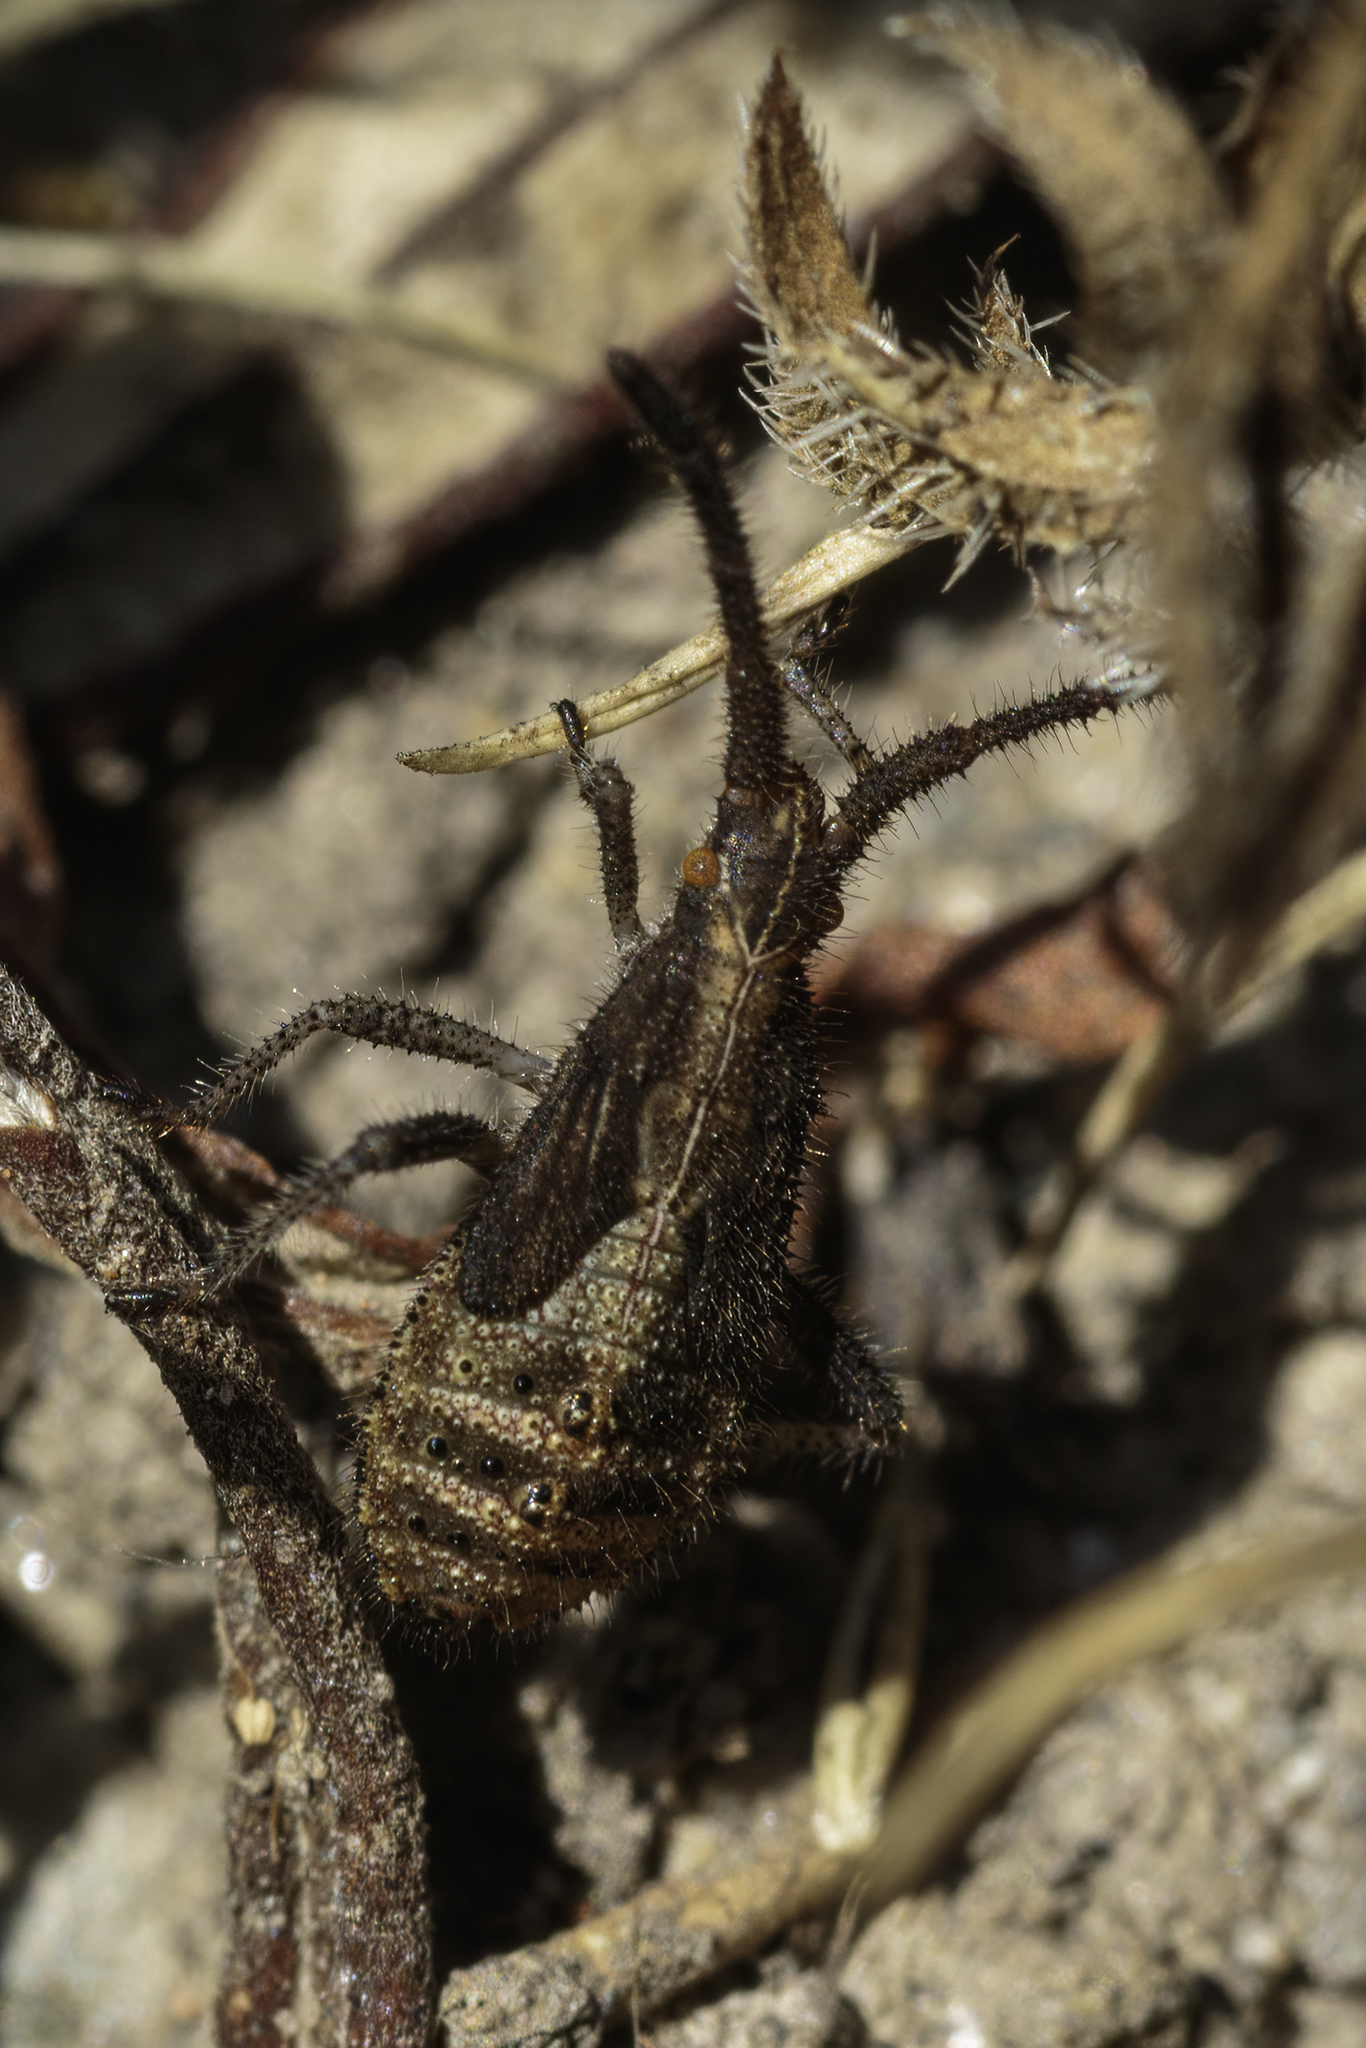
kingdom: Animalia
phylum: Arthropoda
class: Insecta
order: Hemiptera
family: Coreidae
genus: Coriomeris
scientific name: Coriomeris denticulatus
